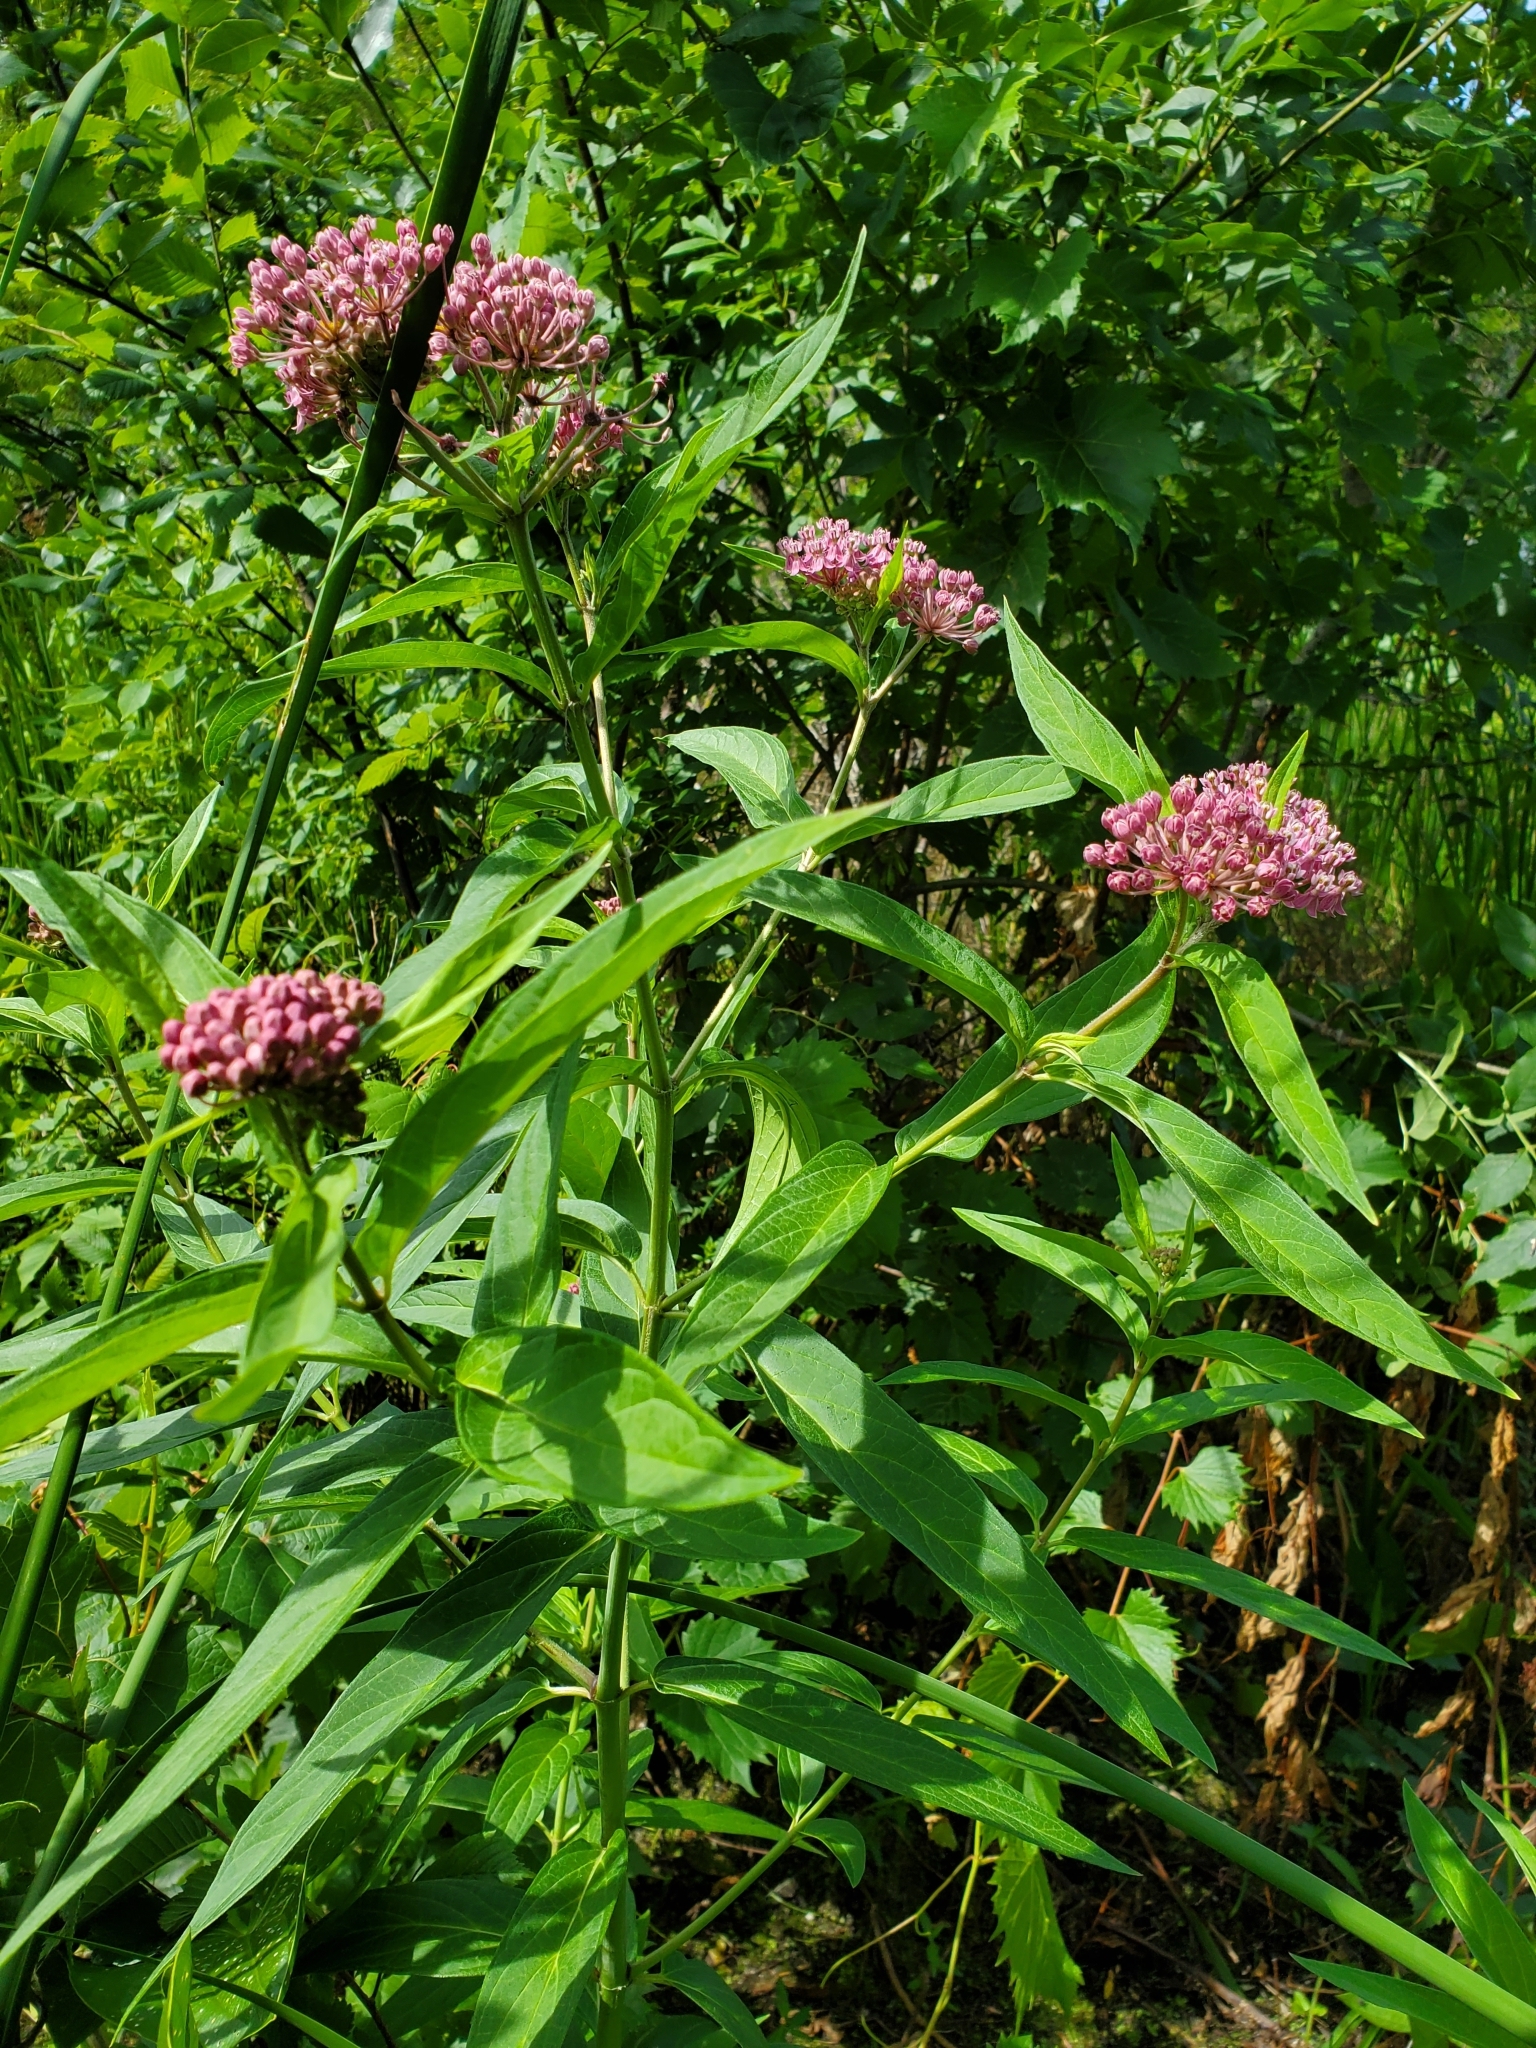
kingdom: Plantae
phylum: Tracheophyta
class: Magnoliopsida
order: Gentianales
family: Apocynaceae
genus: Asclepias
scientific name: Asclepias incarnata
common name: Swamp milkweed
